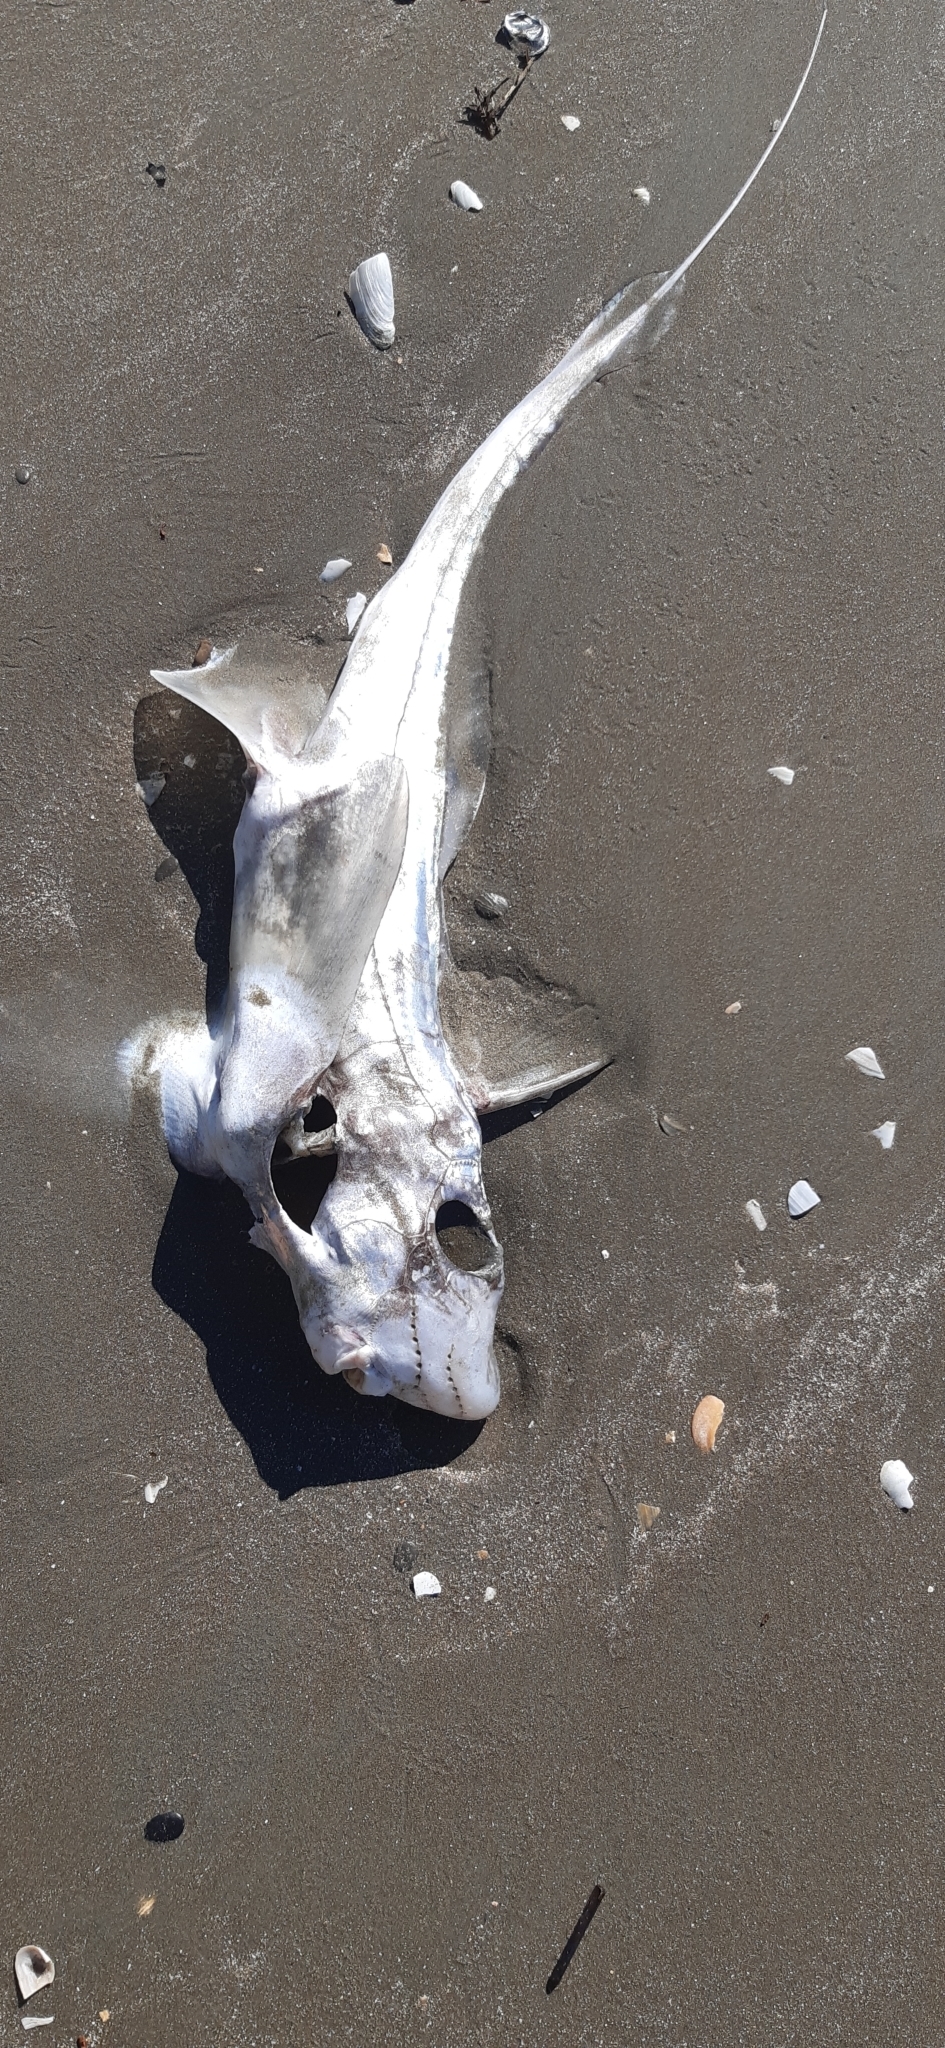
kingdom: Animalia
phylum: Chordata
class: Holocephali
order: Chimaeriformes
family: Chimaeridae
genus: Hydrolagus
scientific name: Hydrolagus novaezealandiae
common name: Chimaera
